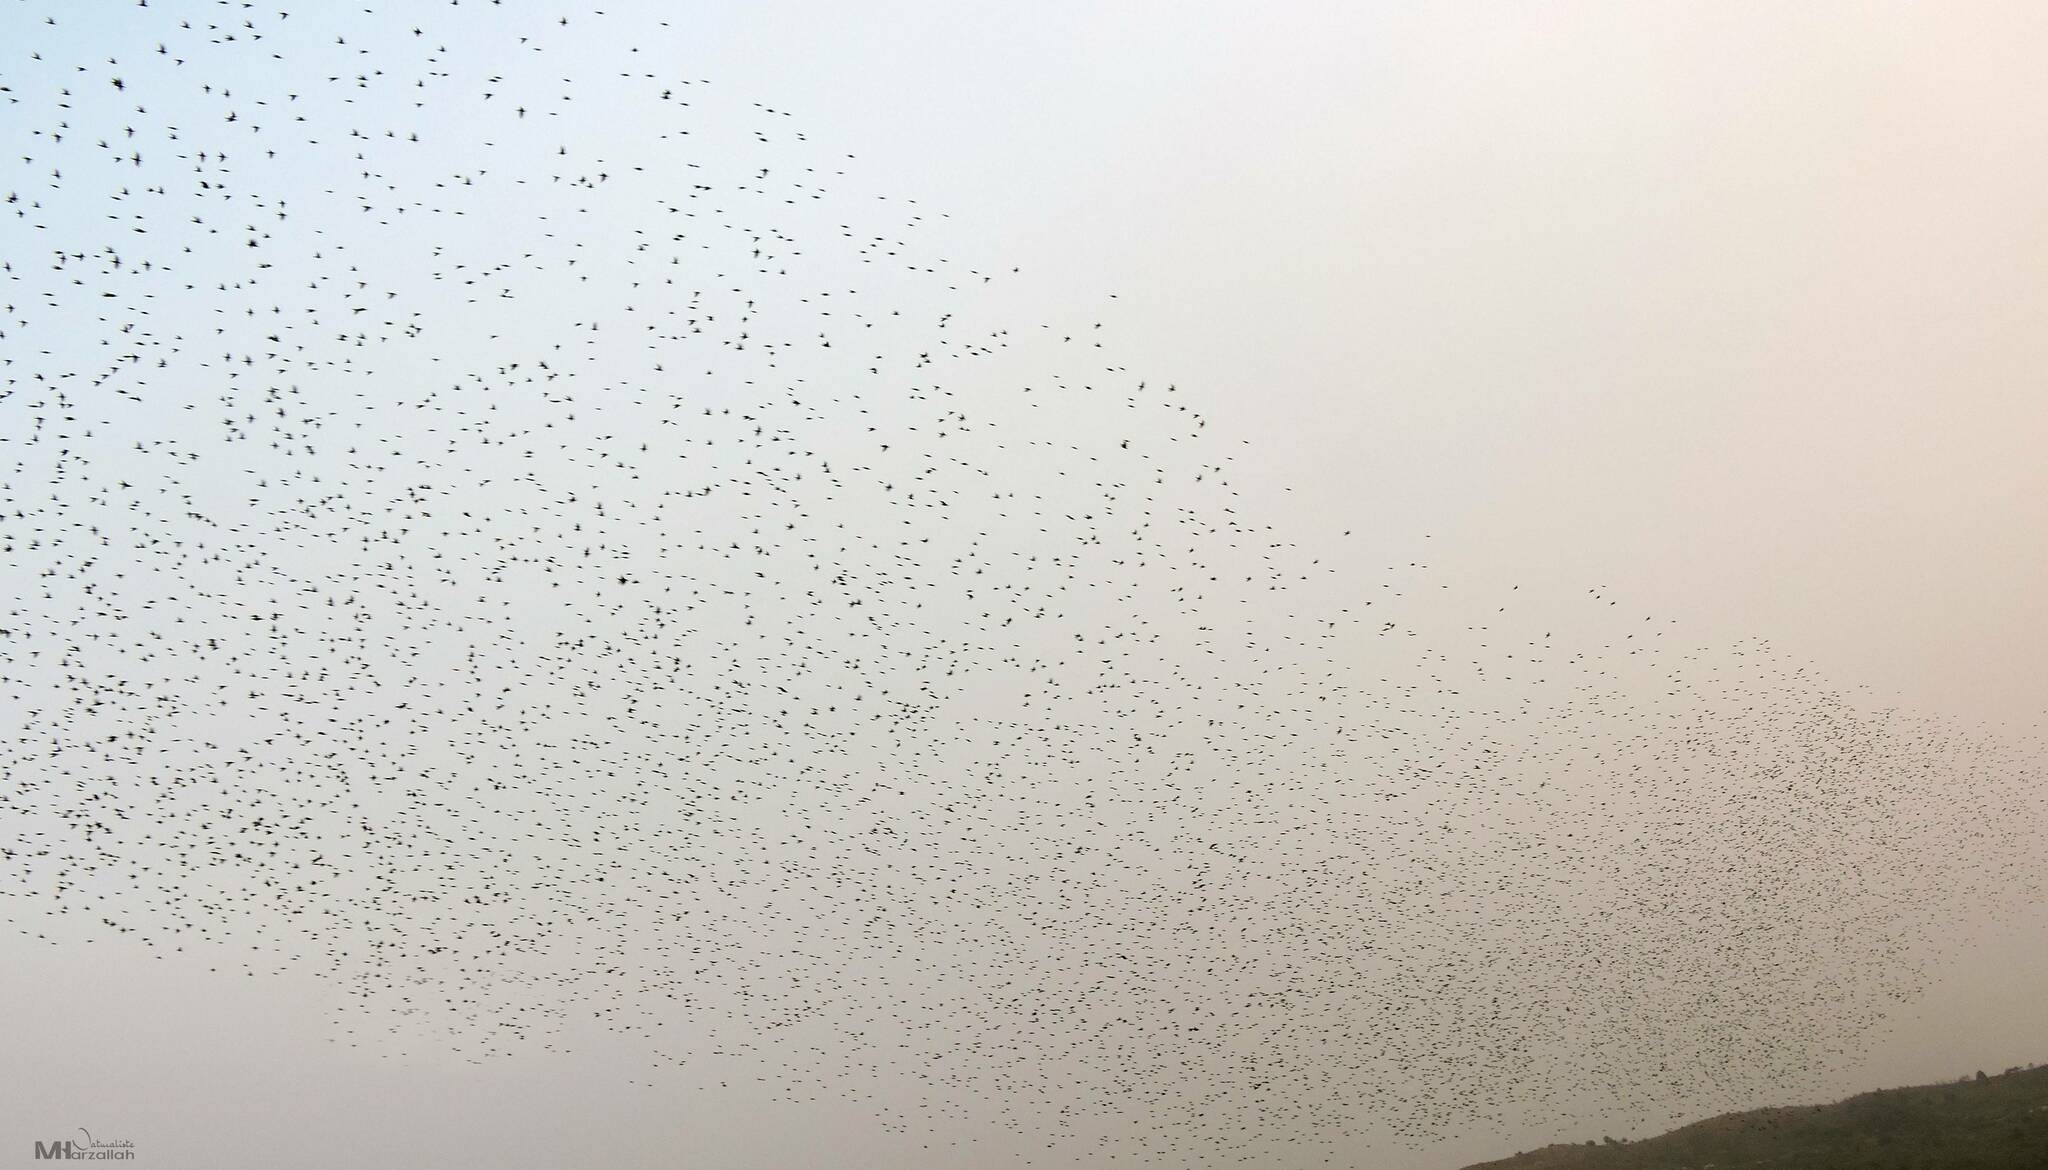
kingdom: Animalia
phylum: Chordata
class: Aves
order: Passeriformes
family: Sturnidae
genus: Sturnus
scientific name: Sturnus vulgaris
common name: Common starling
